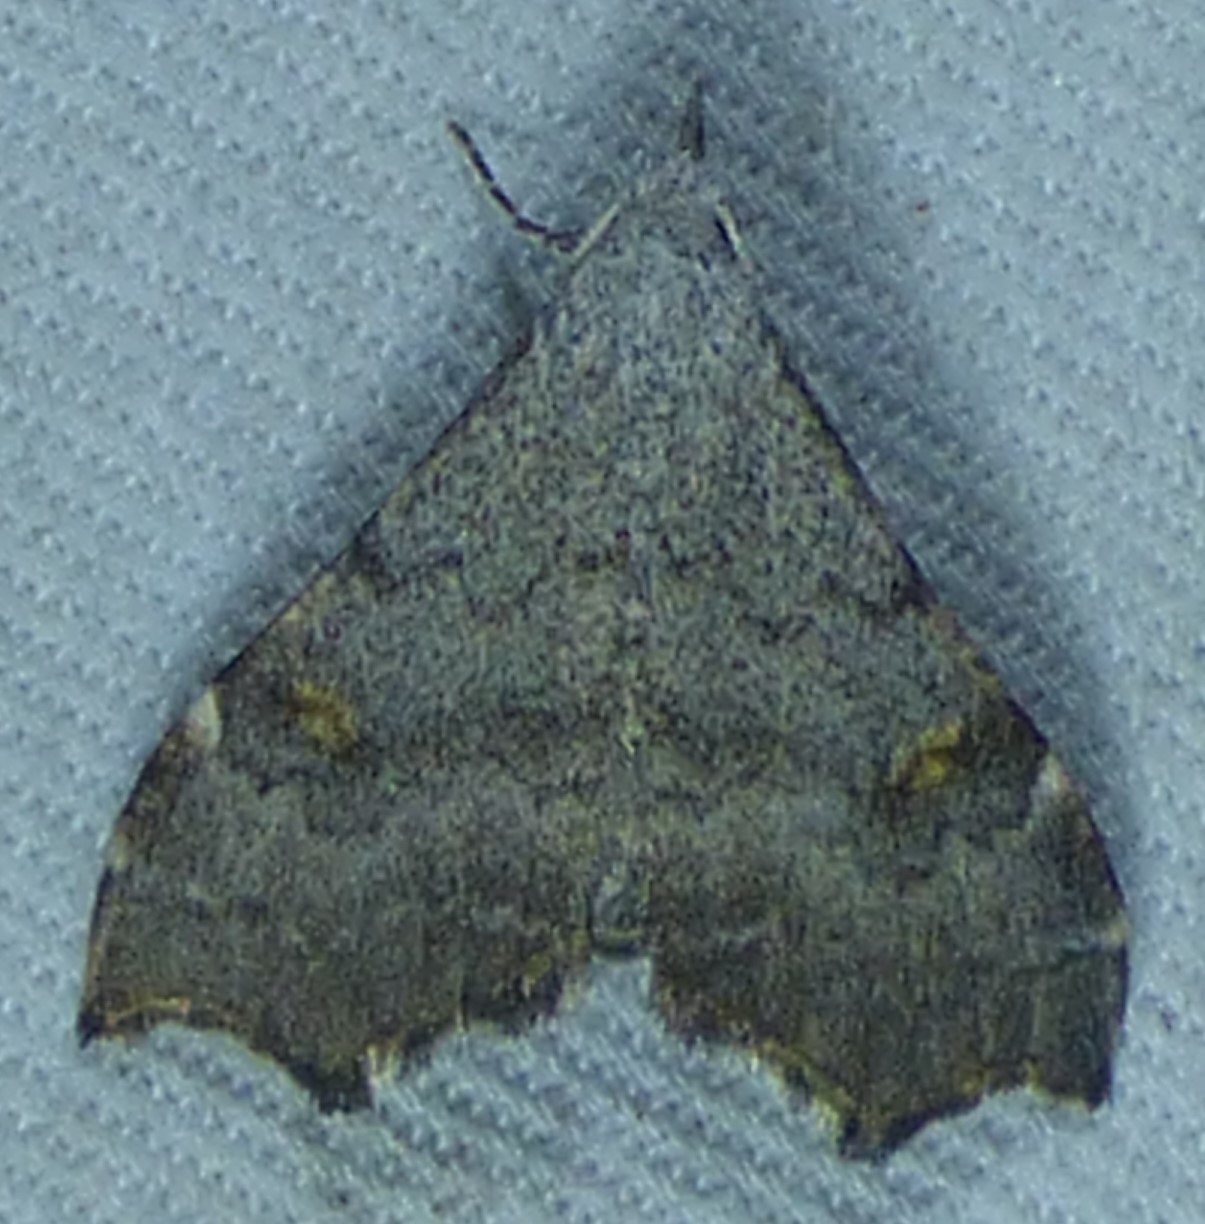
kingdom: Animalia
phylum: Arthropoda
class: Insecta
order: Lepidoptera
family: Erebidae
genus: Redectis
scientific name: Redectis pygmaea
